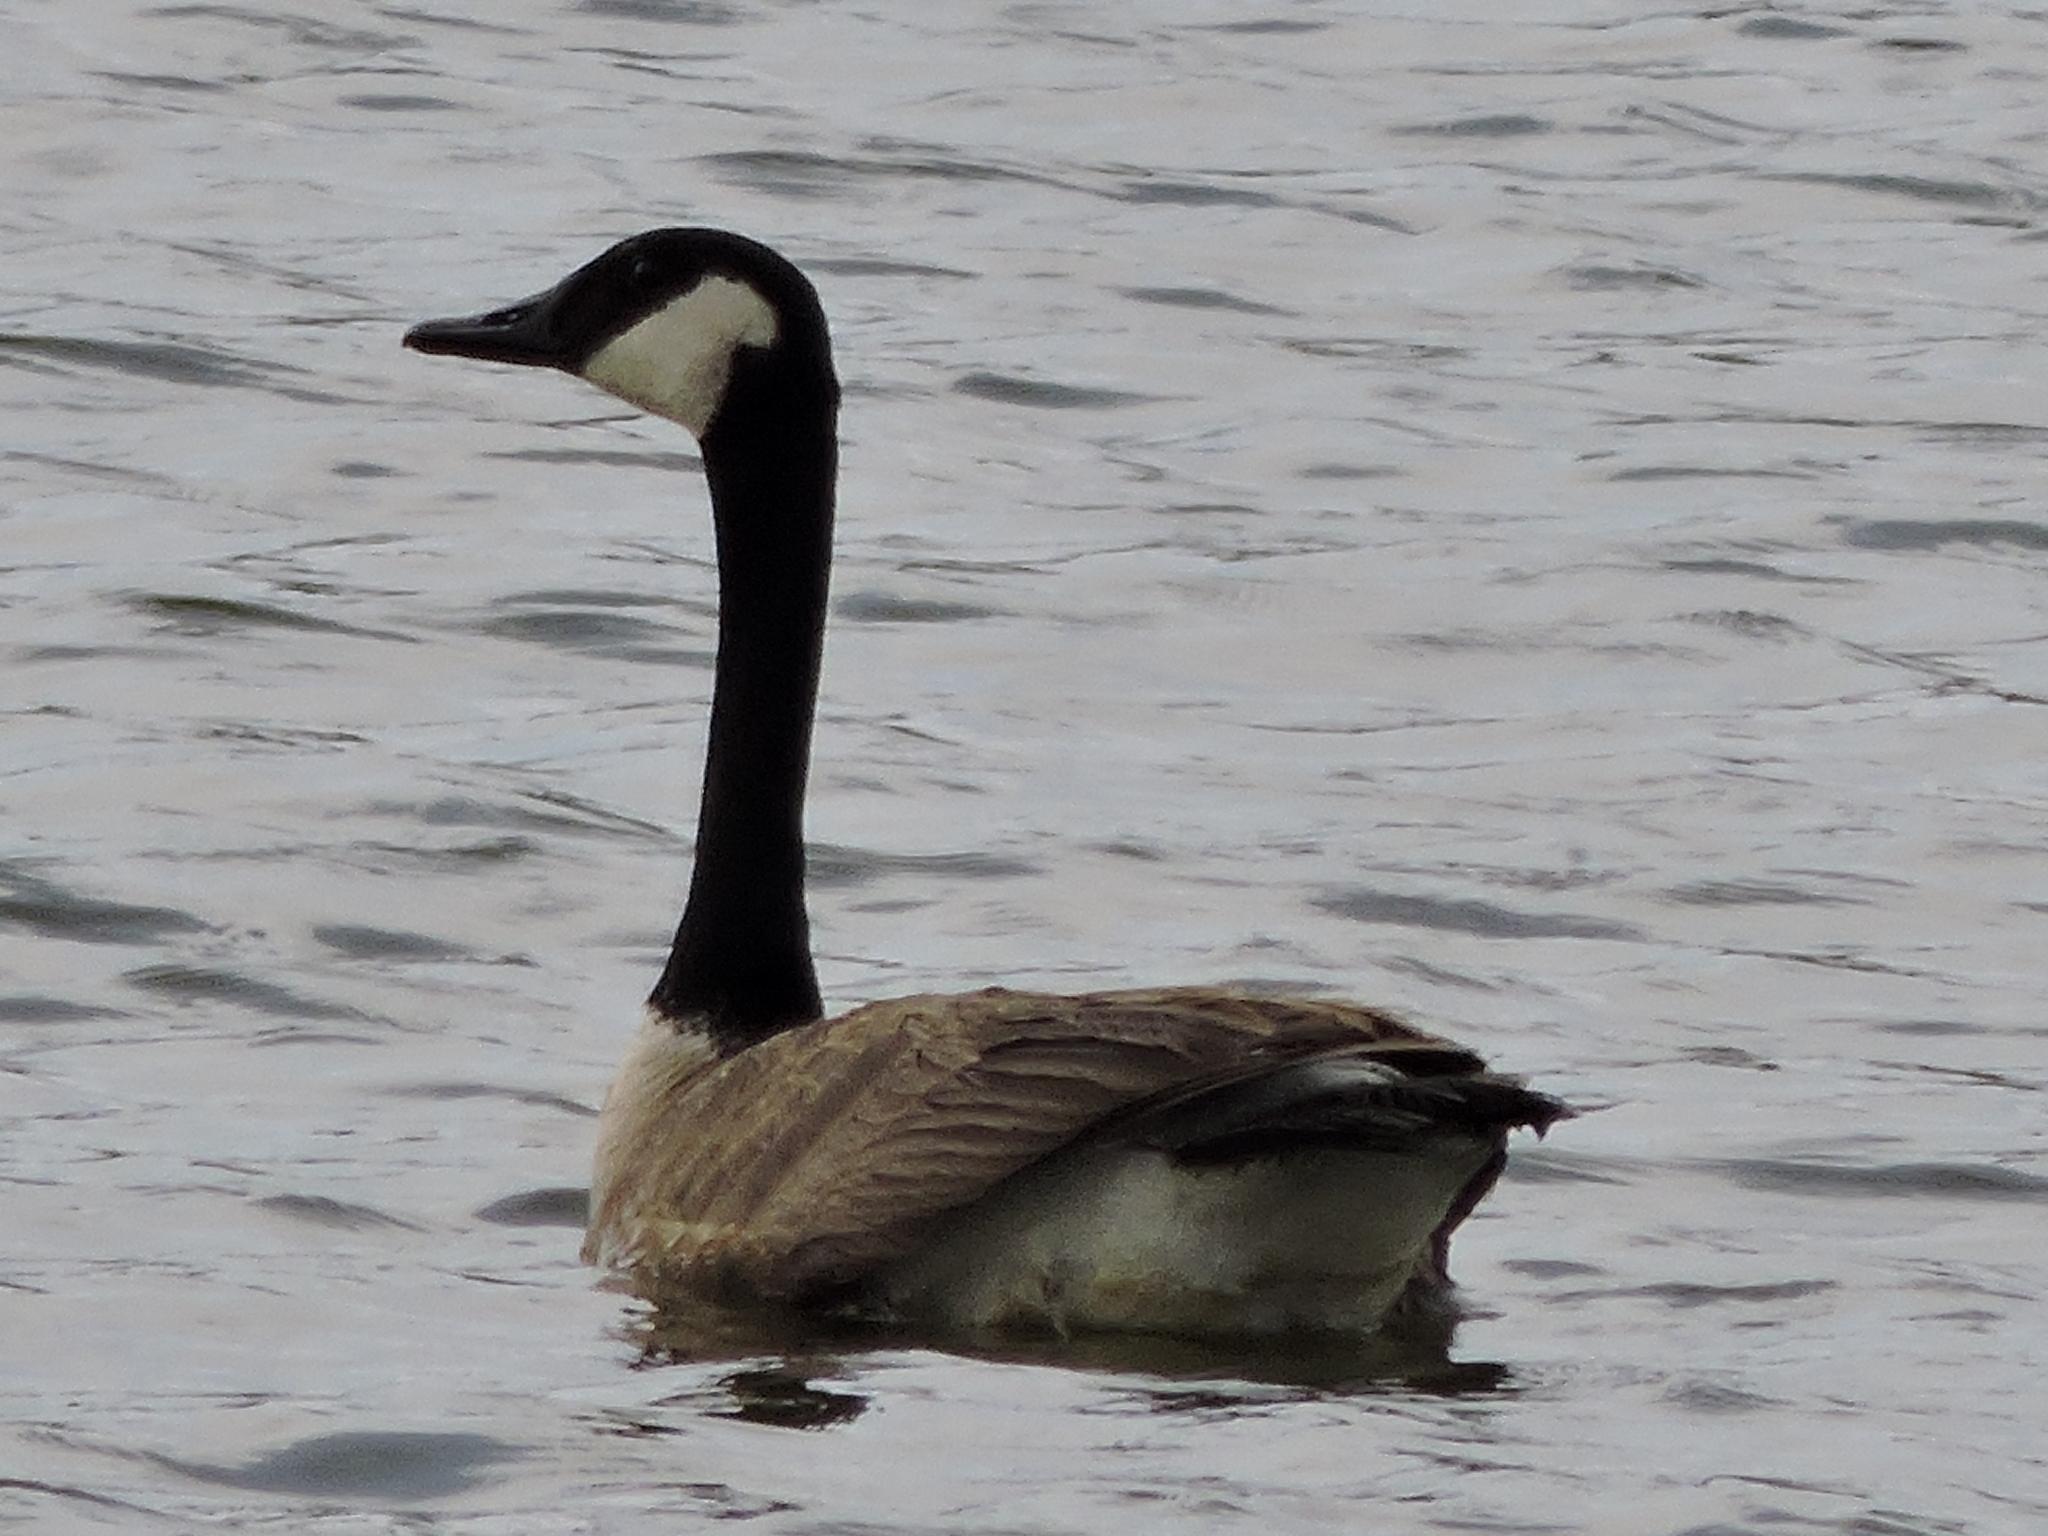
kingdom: Animalia
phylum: Chordata
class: Aves
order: Anseriformes
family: Anatidae
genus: Branta
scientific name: Branta canadensis
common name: Canada goose
